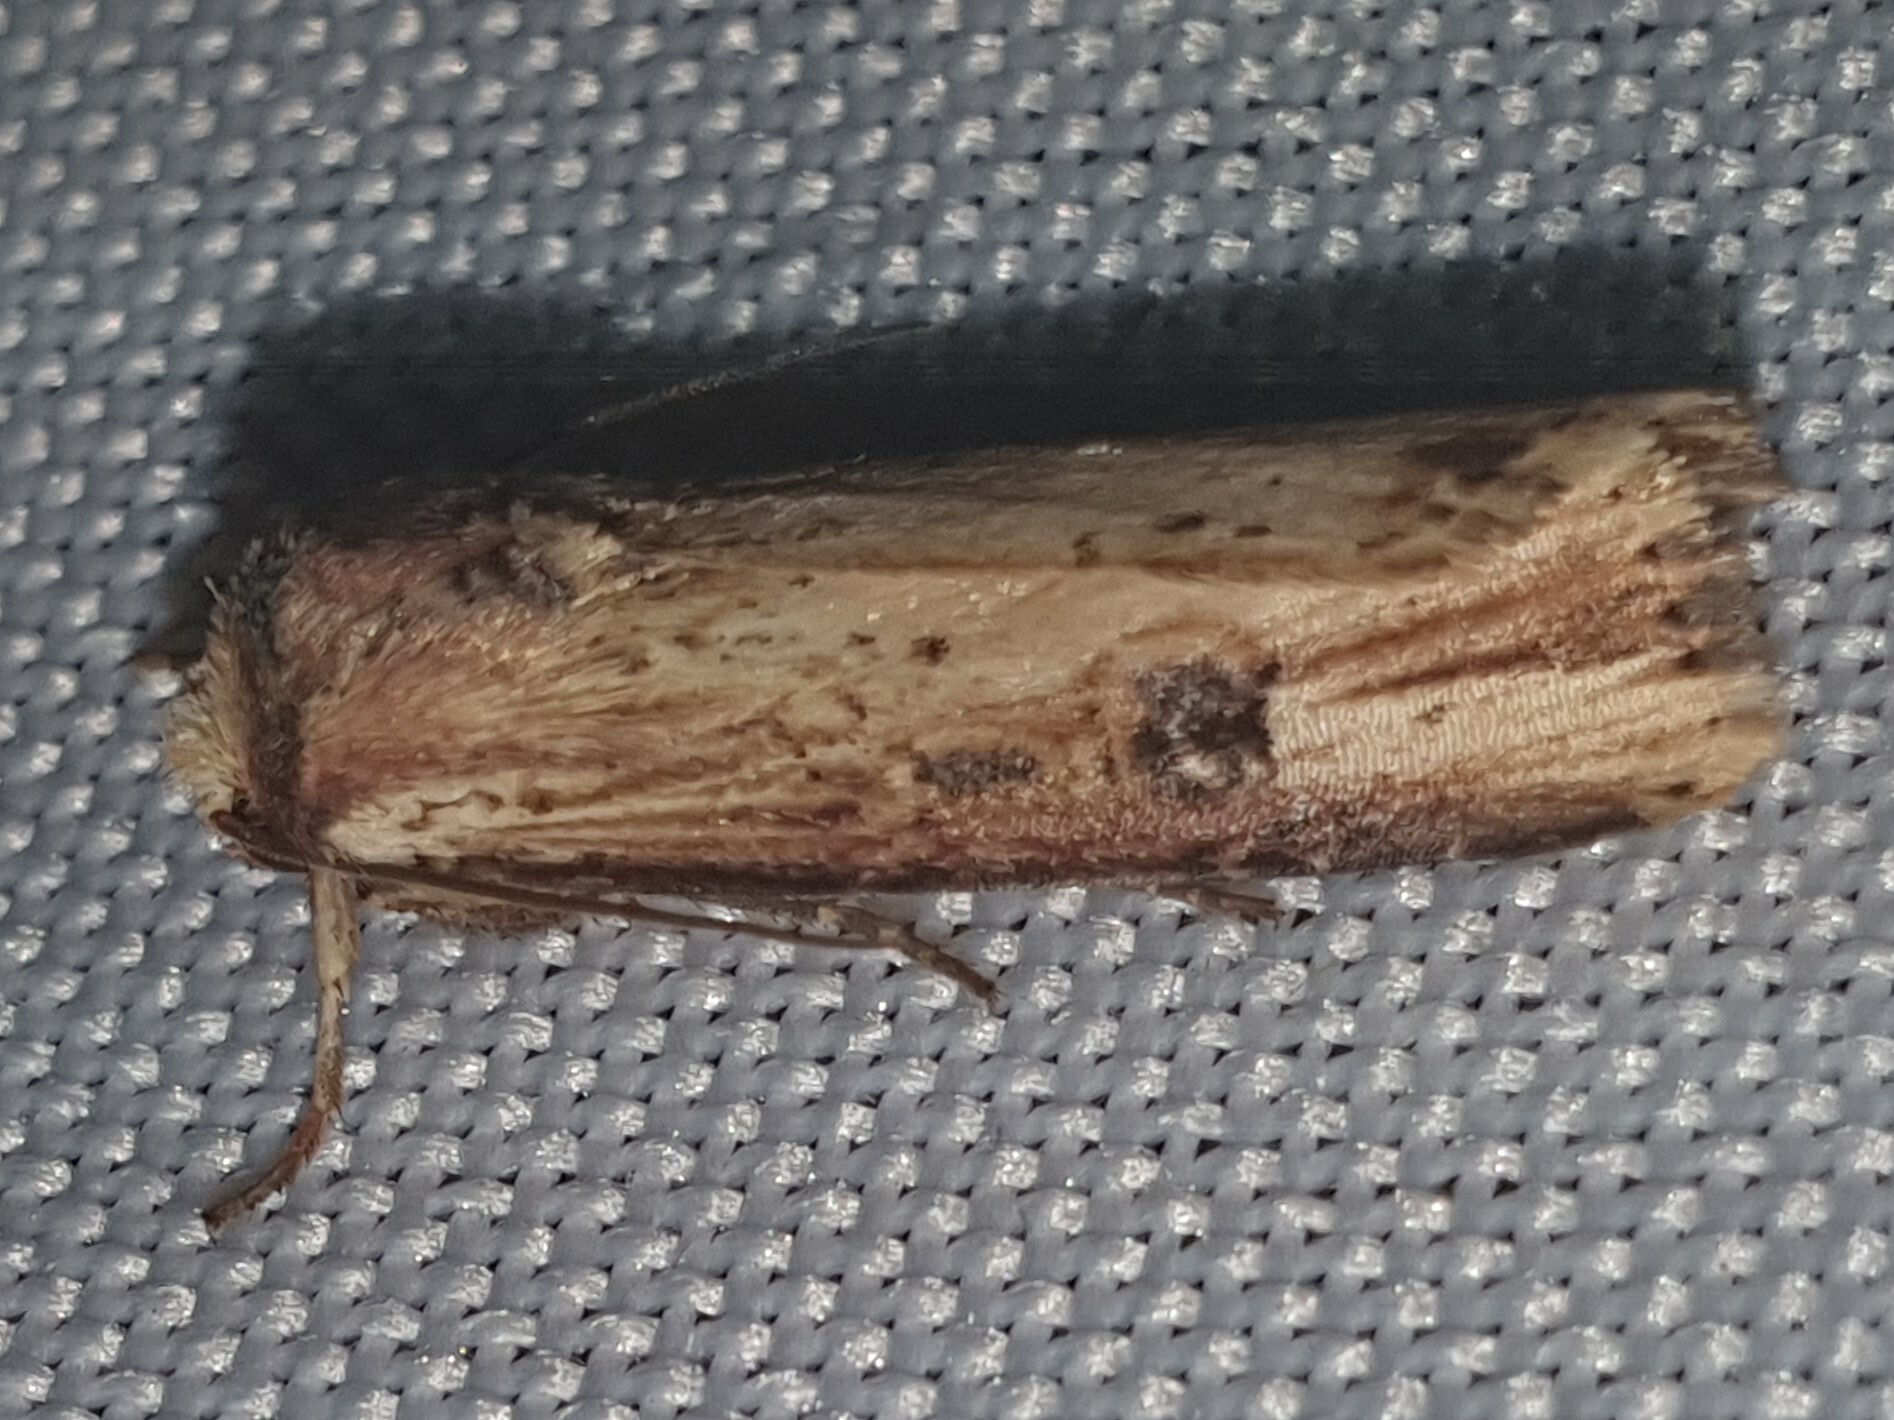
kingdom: Animalia
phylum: Arthropoda
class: Insecta
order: Lepidoptera
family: Noctuidae
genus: Axylia
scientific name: Axylia putris
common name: Flame
